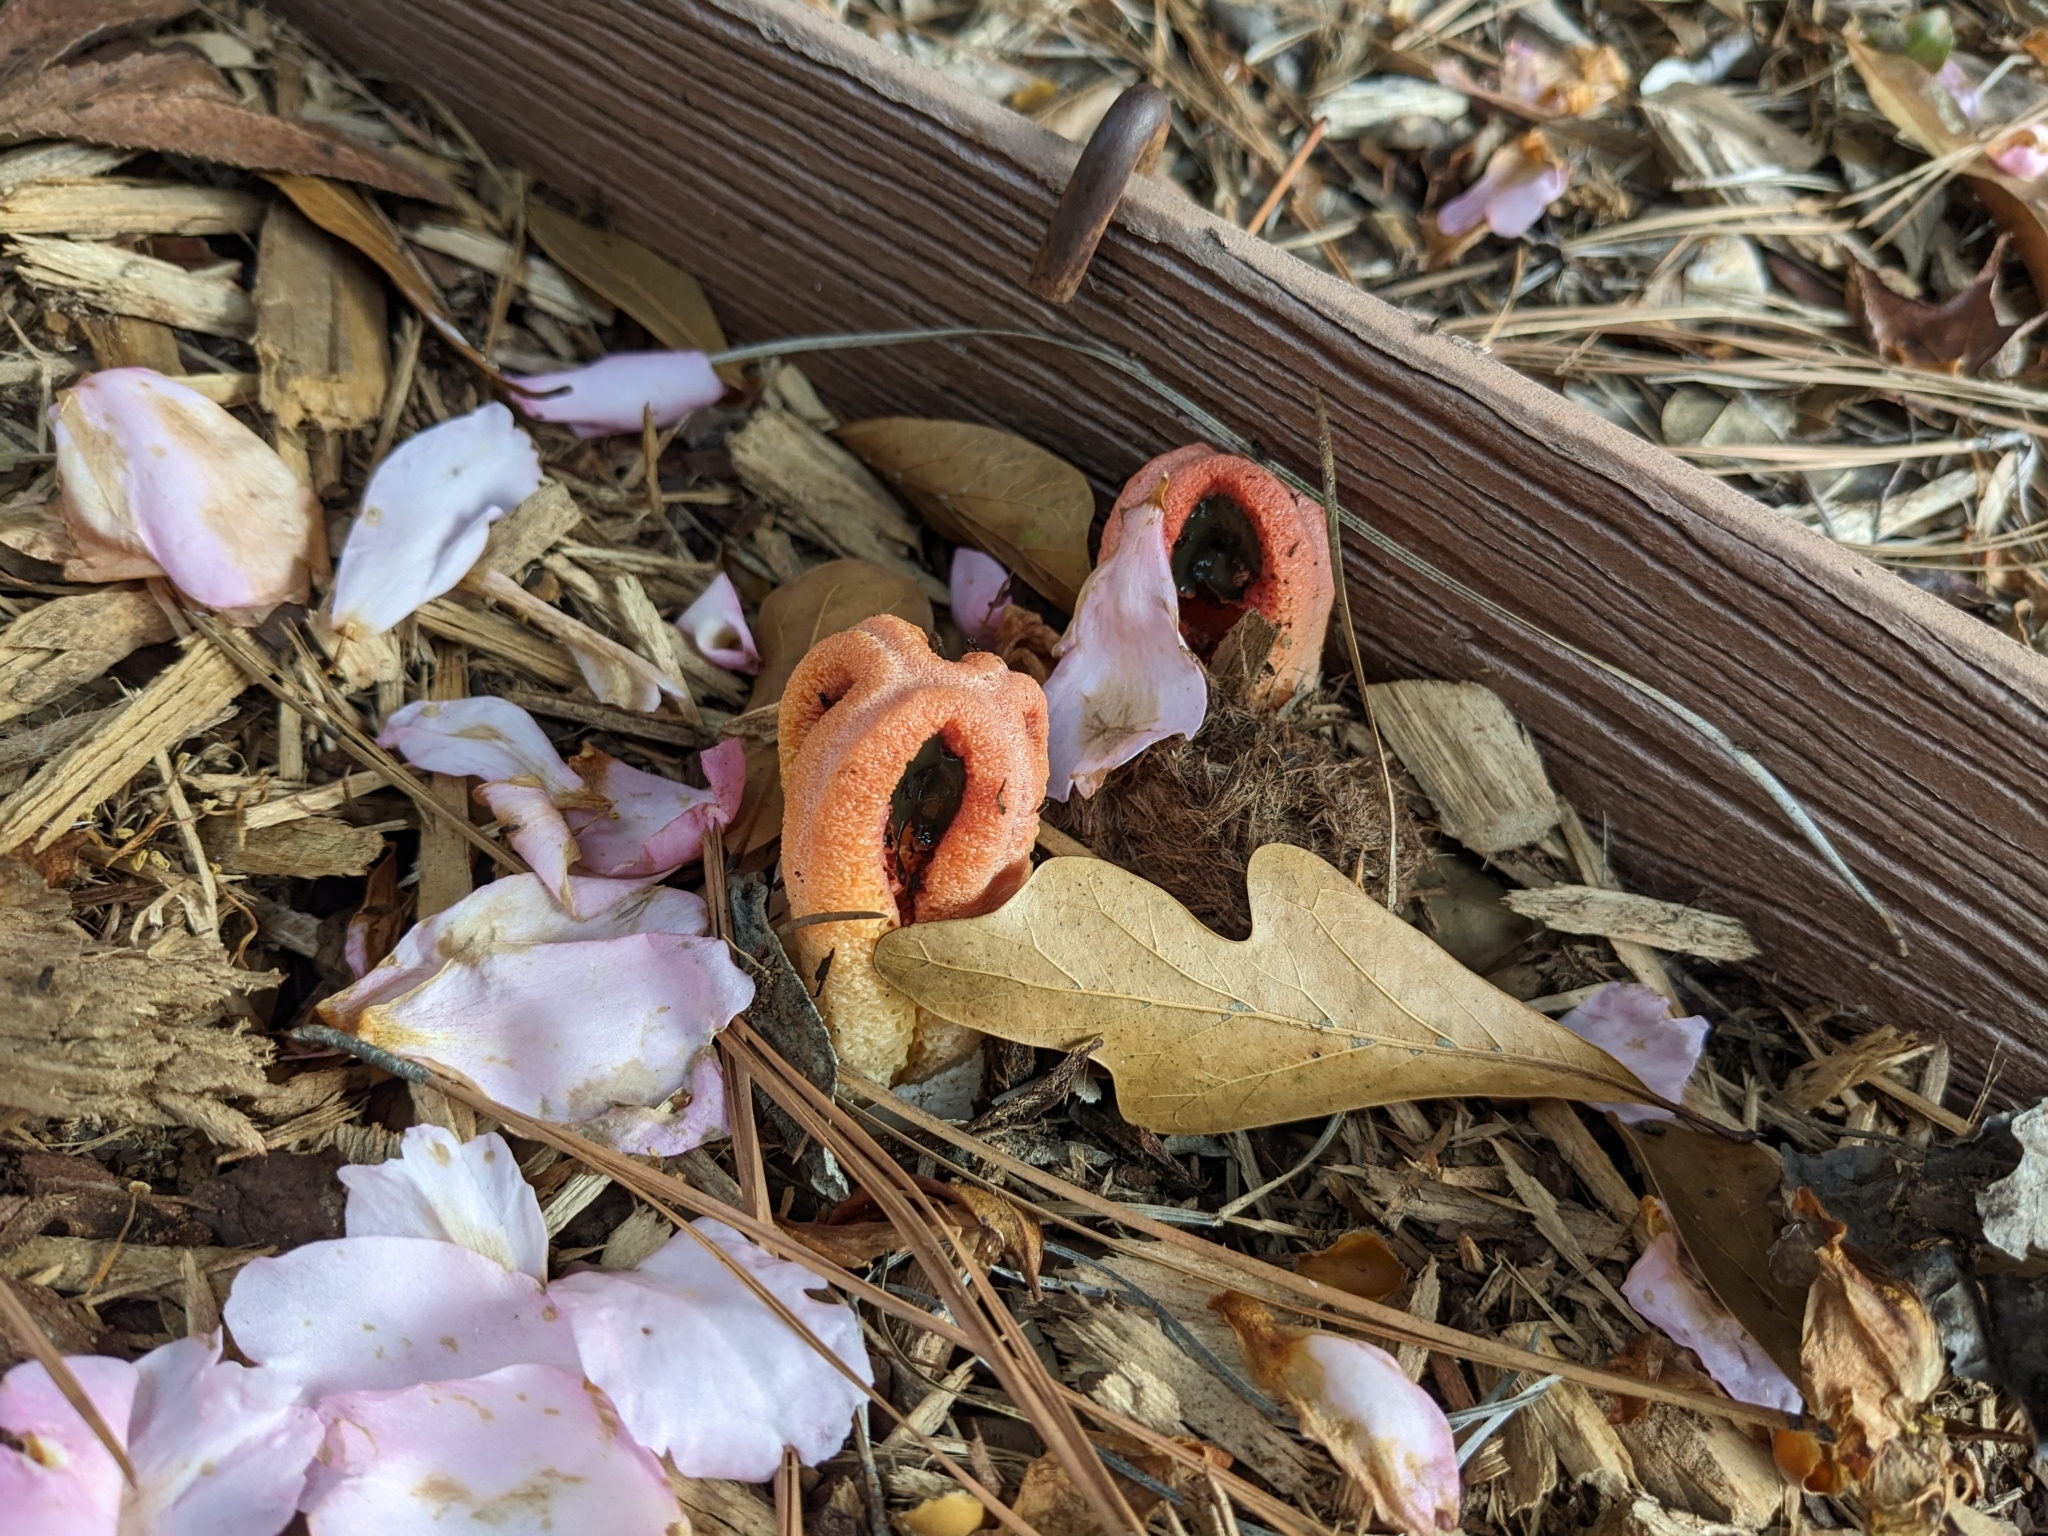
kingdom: Fungi
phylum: Basidiomycota
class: Agaricomycetes
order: Phallales
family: Phallaceae
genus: Clathrus
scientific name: Clathrus columnatus
